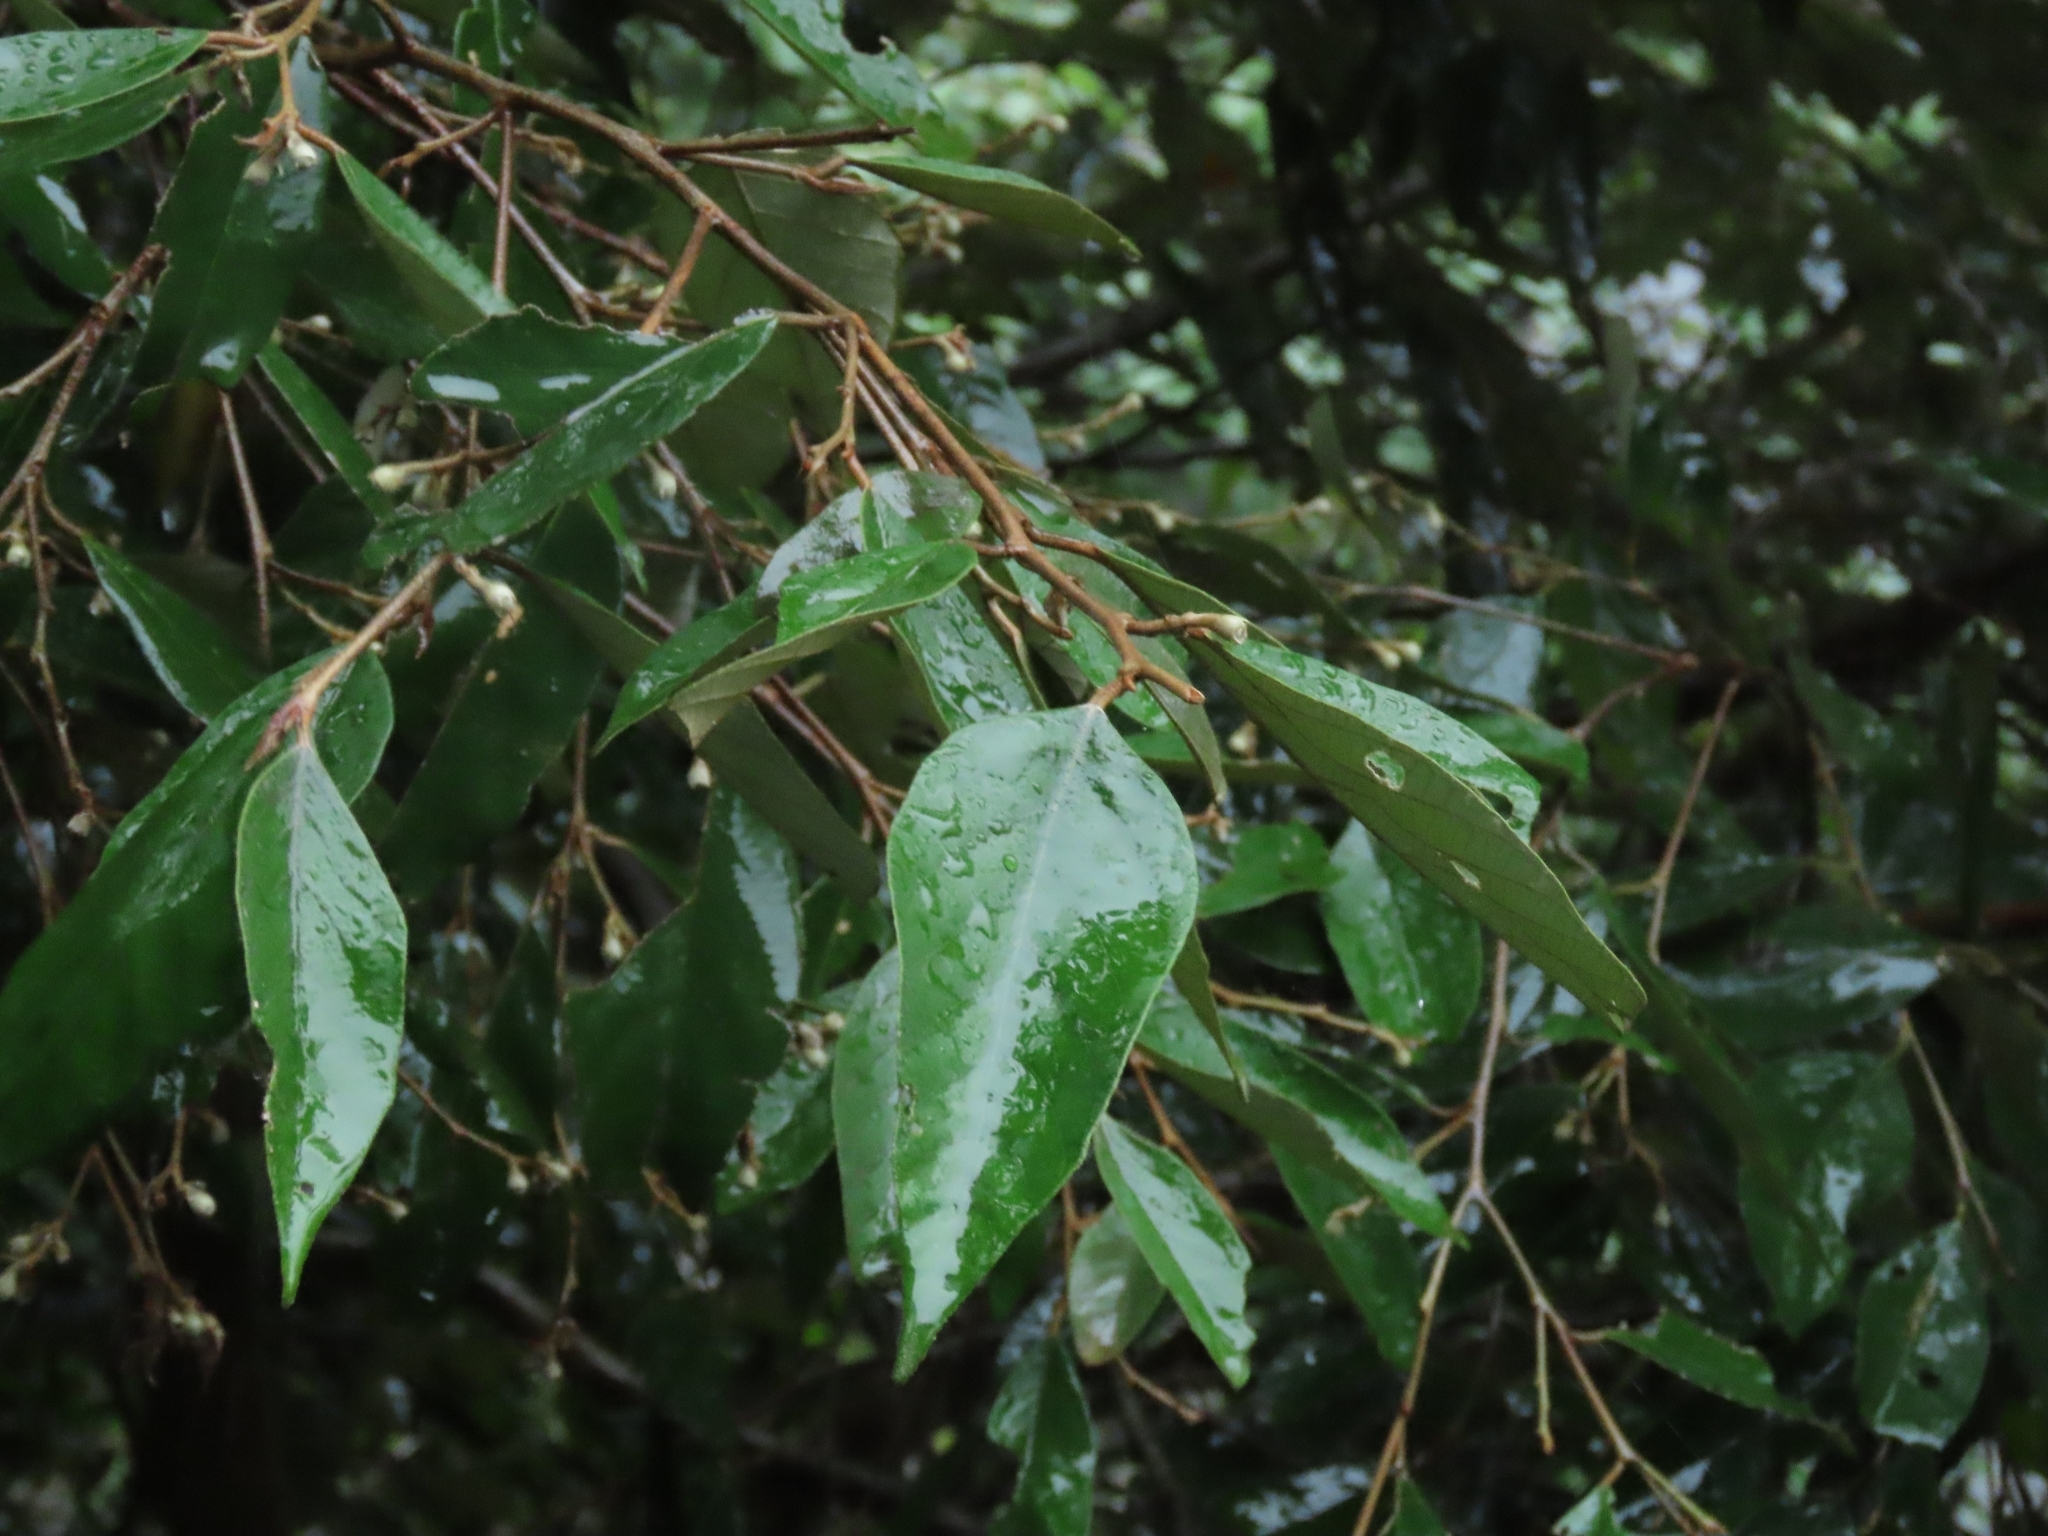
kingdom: Plantae
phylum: Tracheophyta
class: Magnoliopsida
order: Ericales
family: Styracaceae
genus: Styrax
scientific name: Styrax suberifolius
